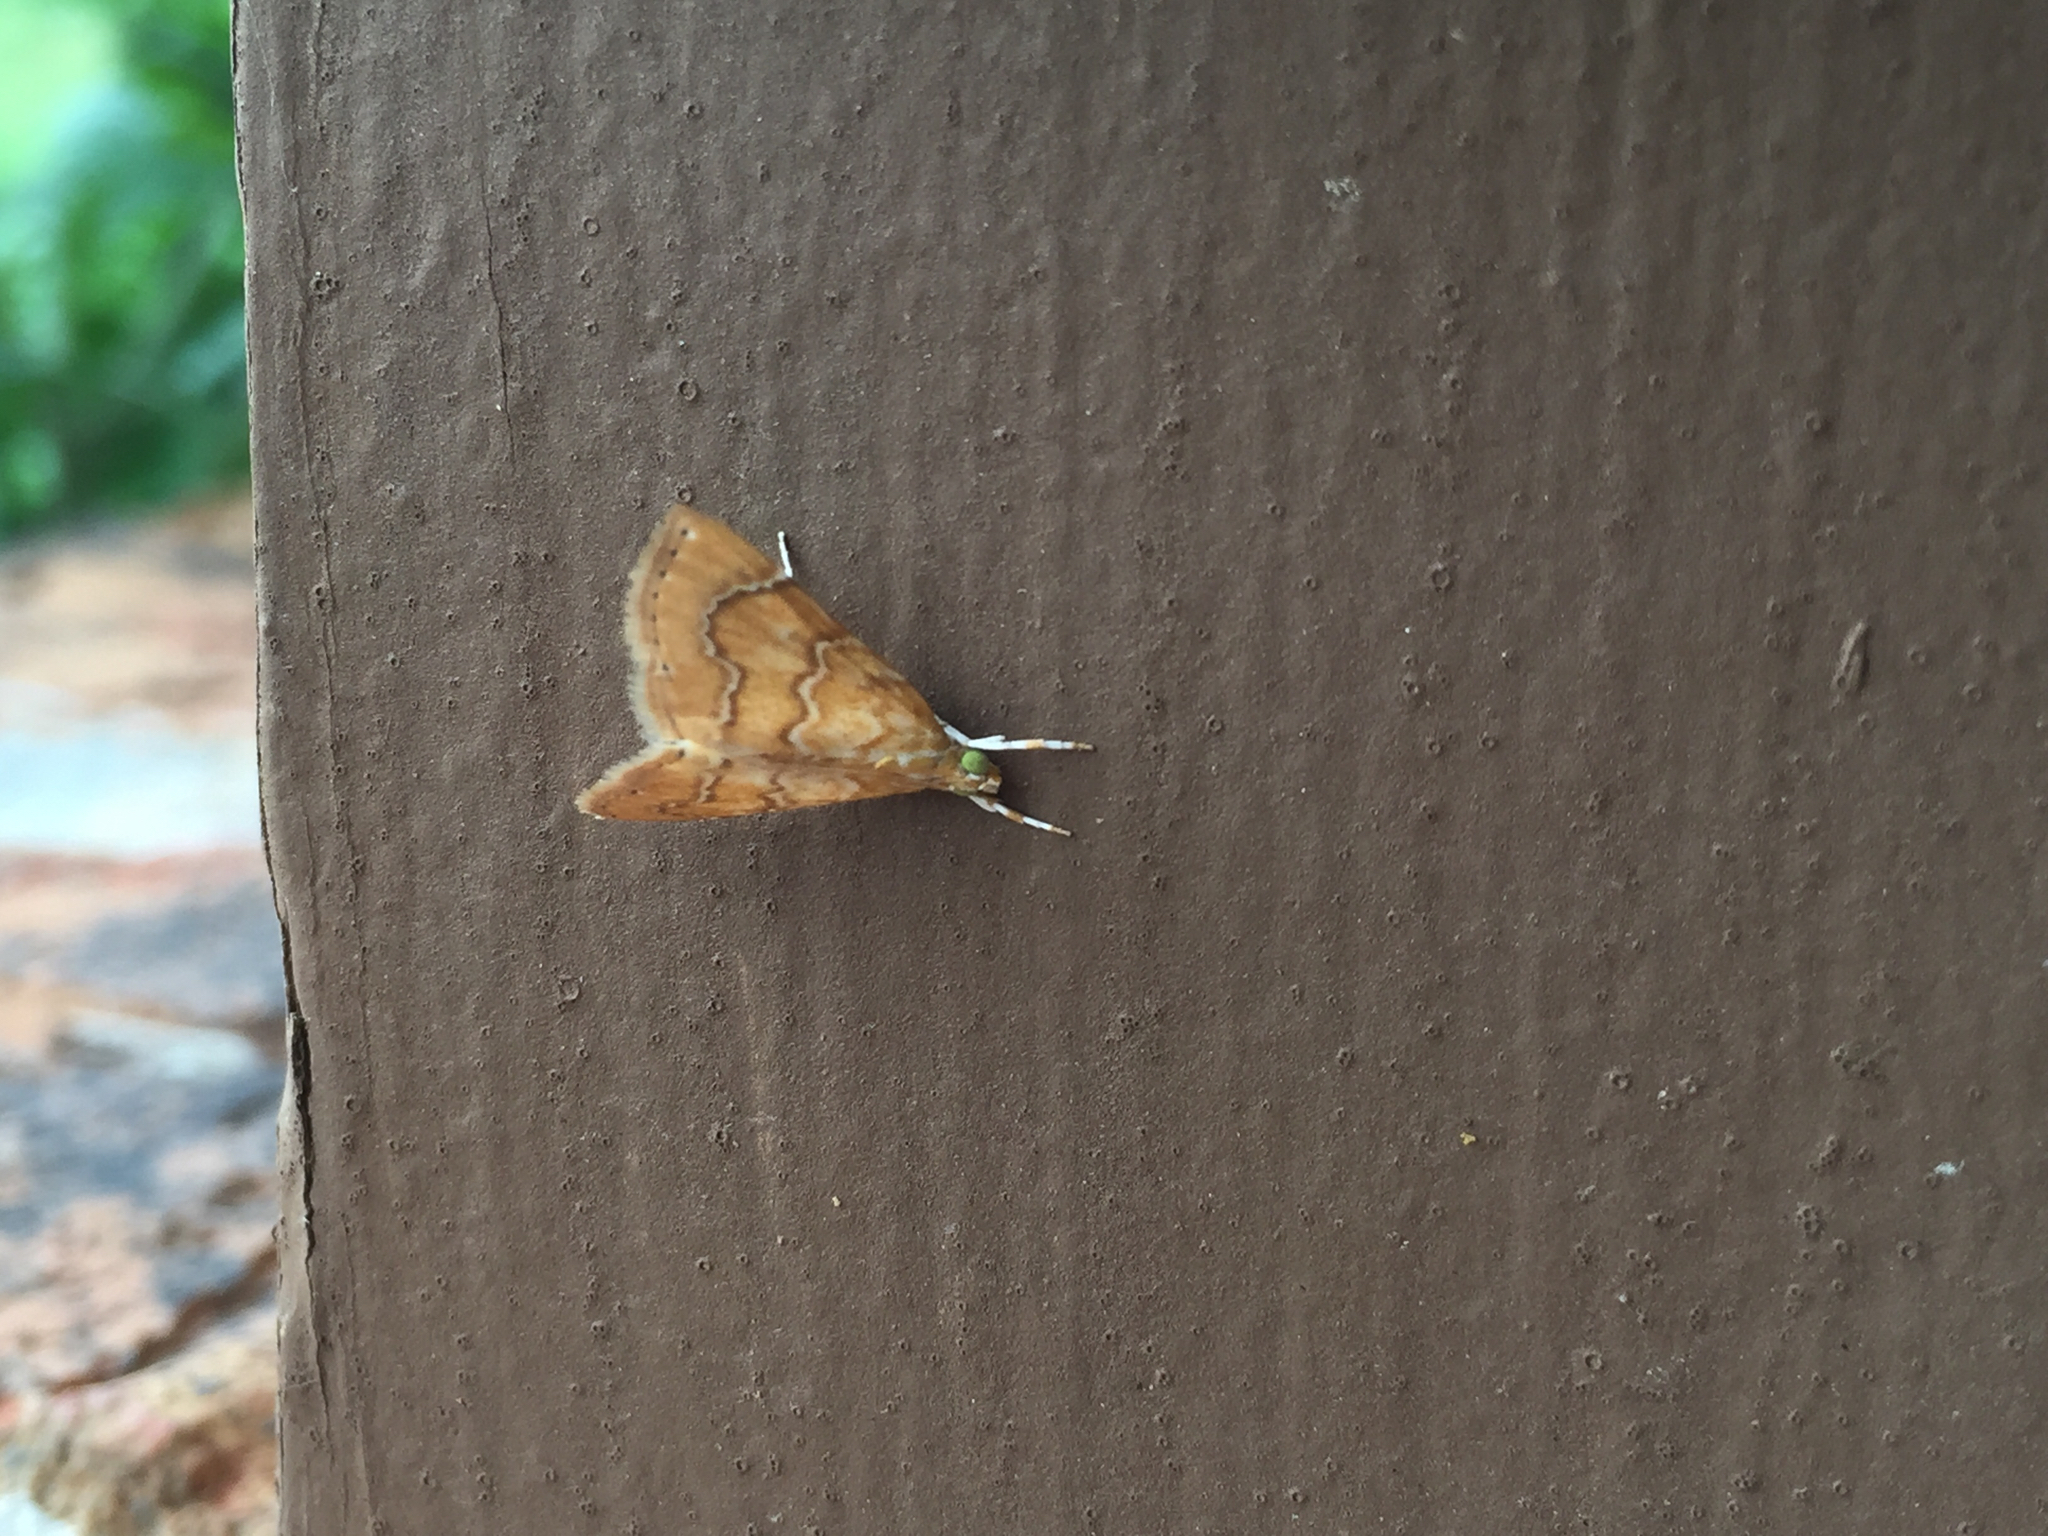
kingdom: Animalia
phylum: Arthropoda
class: Insecta
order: Lepidoptera
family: Crambidae
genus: Glaphyria
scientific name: Glaphyria sesquistrialis
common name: White-roped glaphyria
